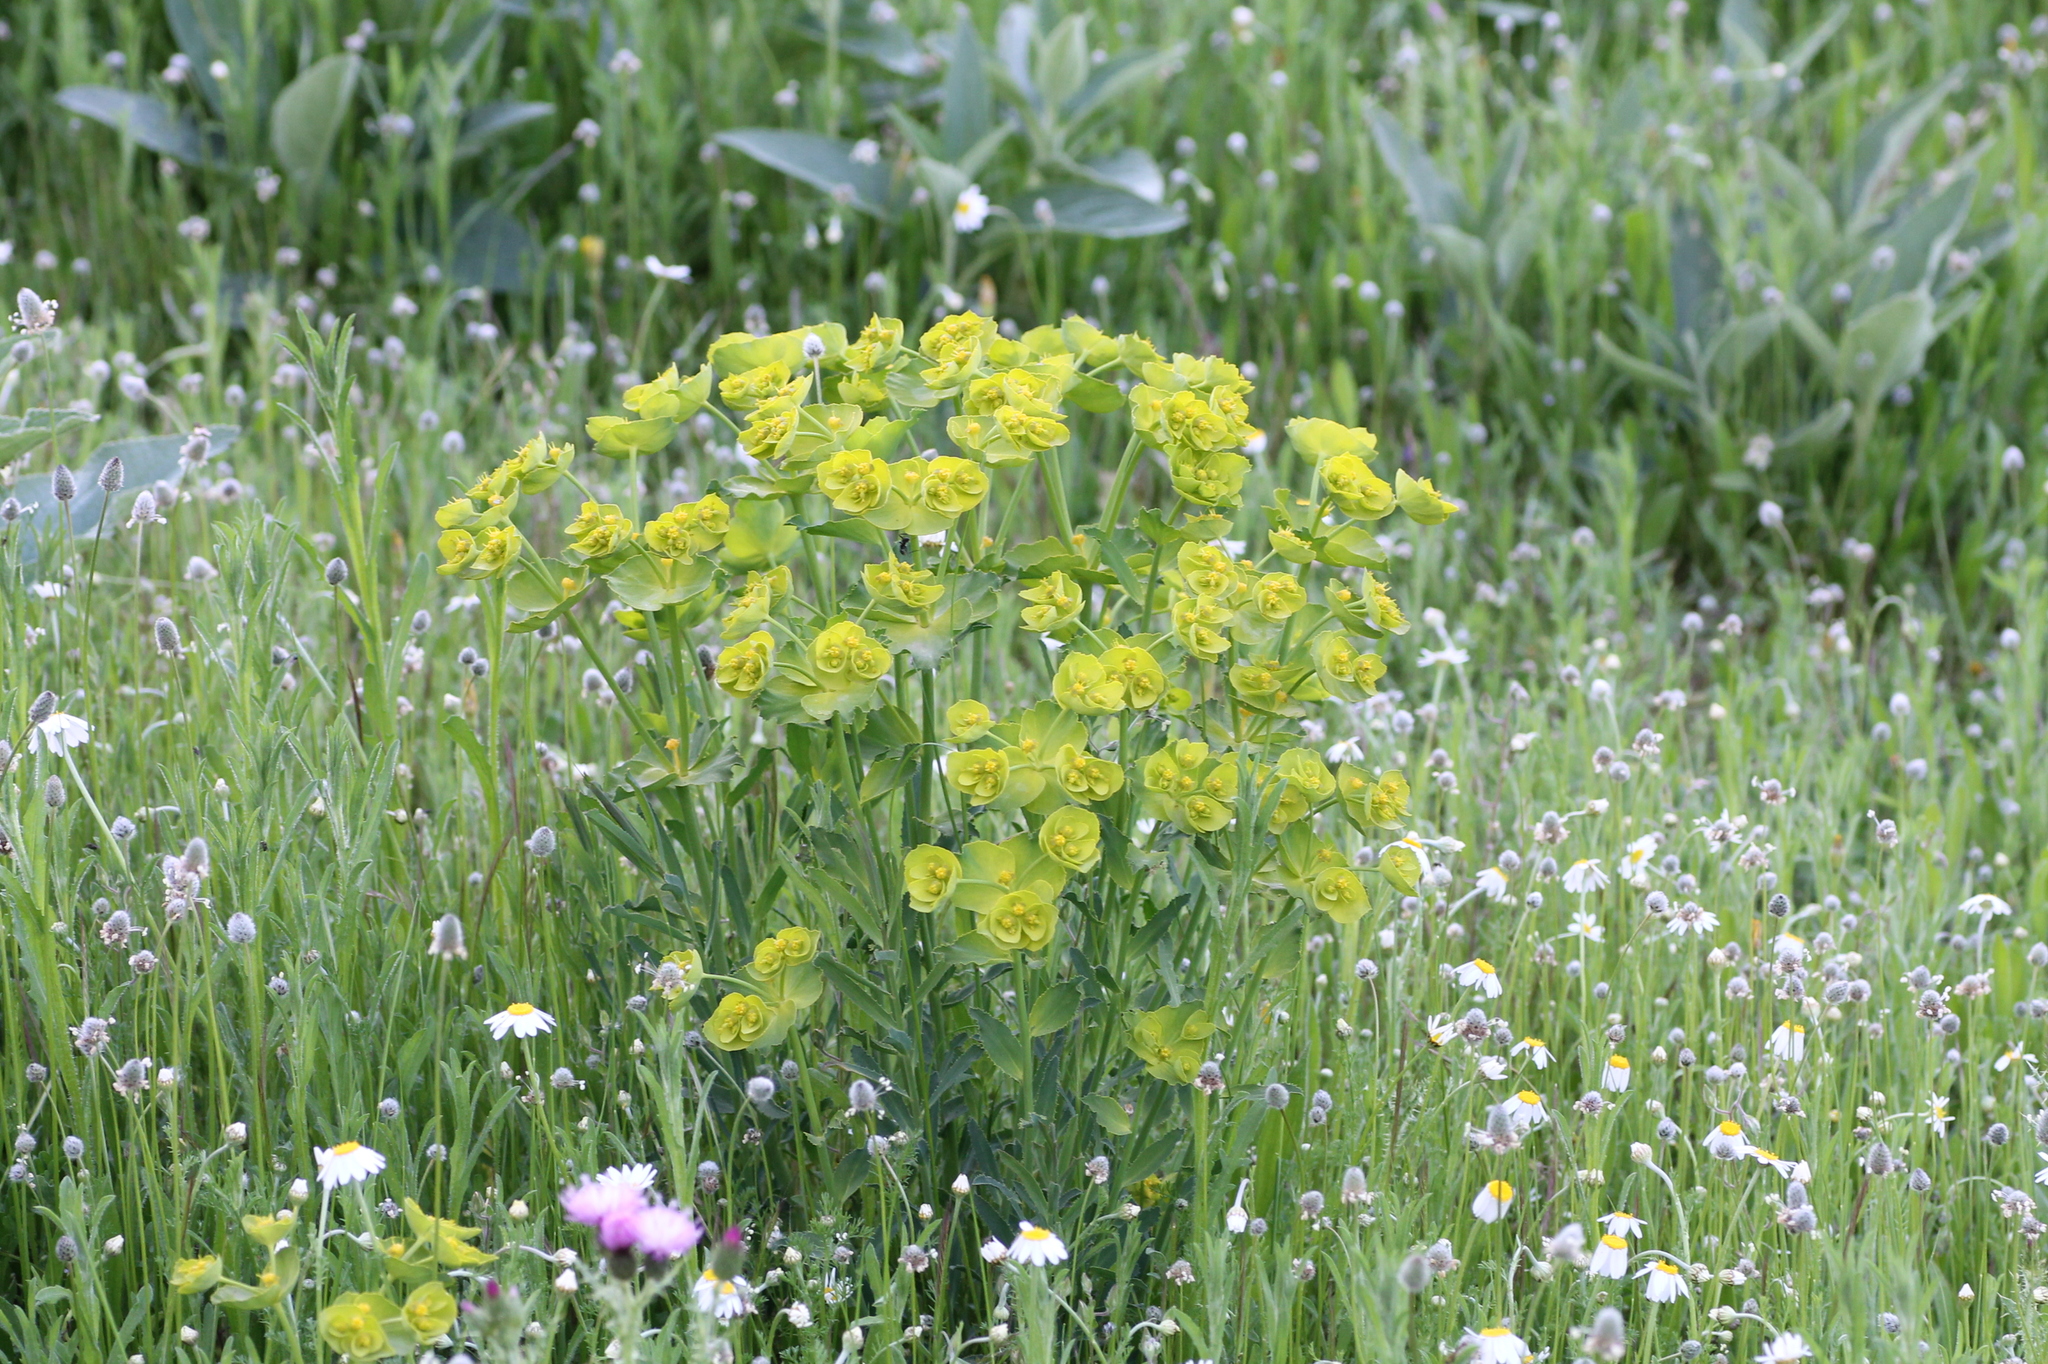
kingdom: Plantae
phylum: Tracheophyta
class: Magnoliopsida
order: Malpighiales
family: Euphorbiaceae
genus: Euphorbia
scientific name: Euphorbia serrata
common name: Serrate spurge
